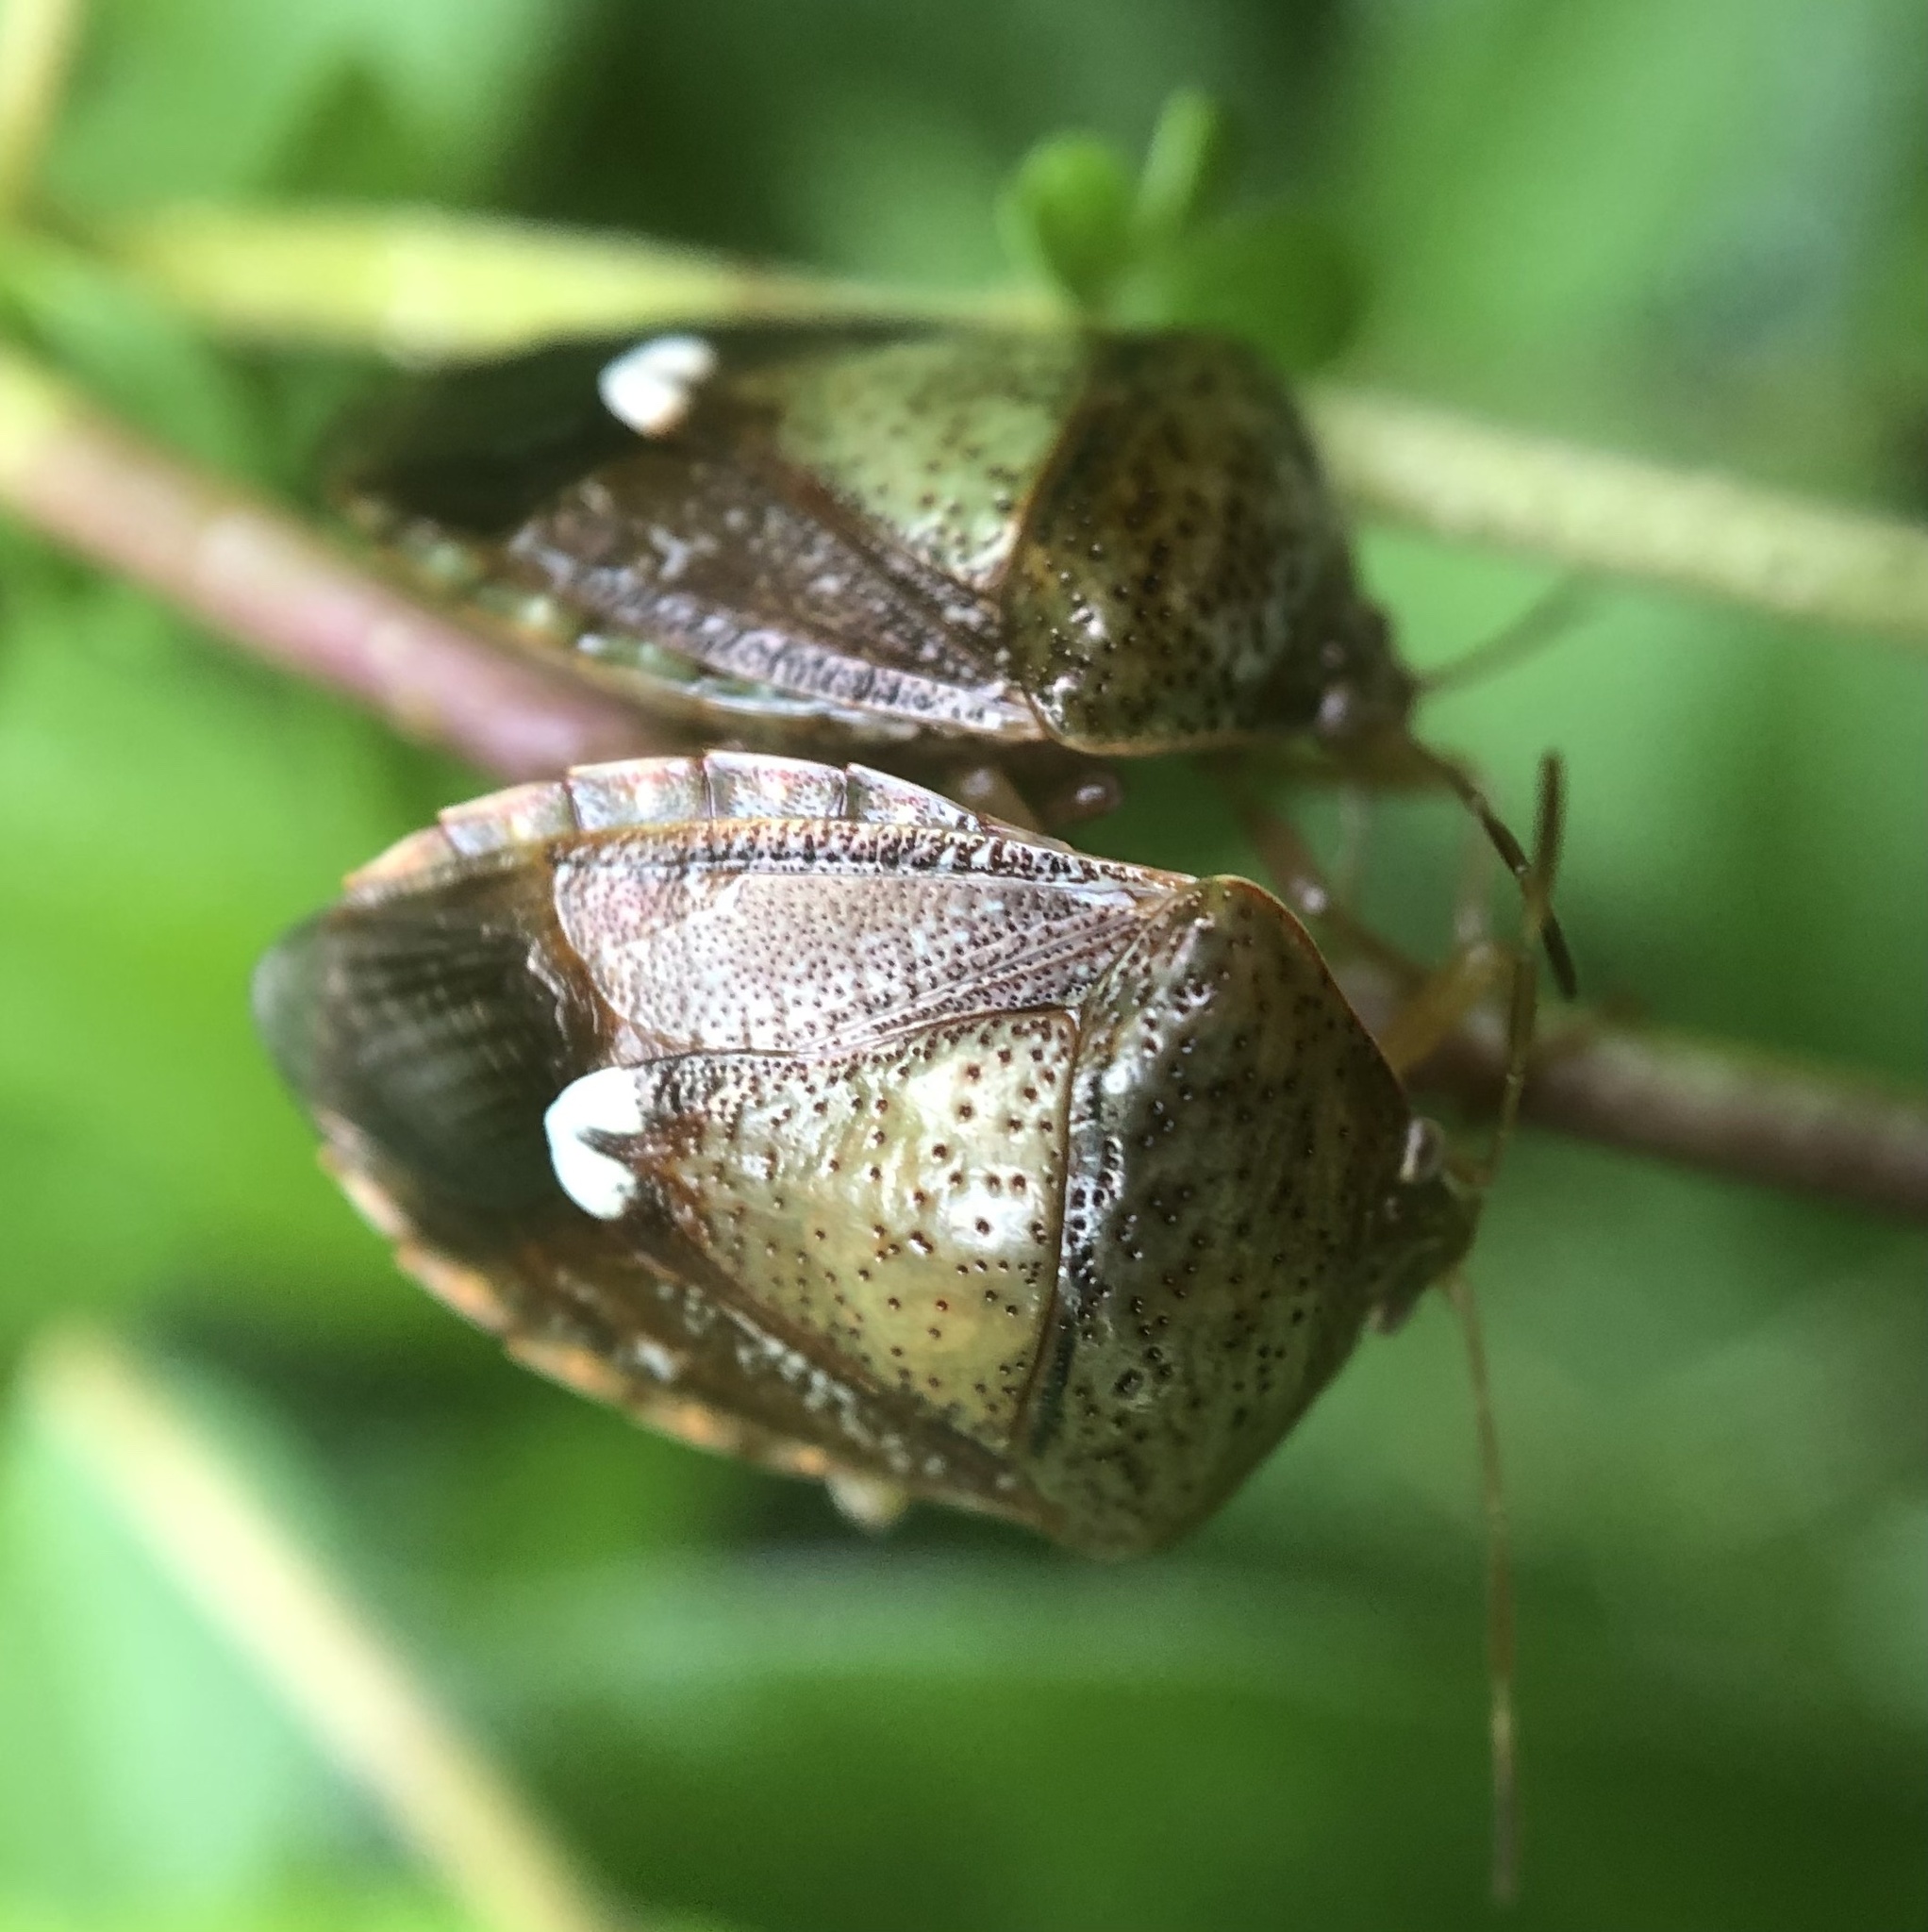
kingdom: Animalia
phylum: Arthropoda
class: Insecta
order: Hemiptera
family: Pentatomidae
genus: Edessa
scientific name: Edessa bifida
